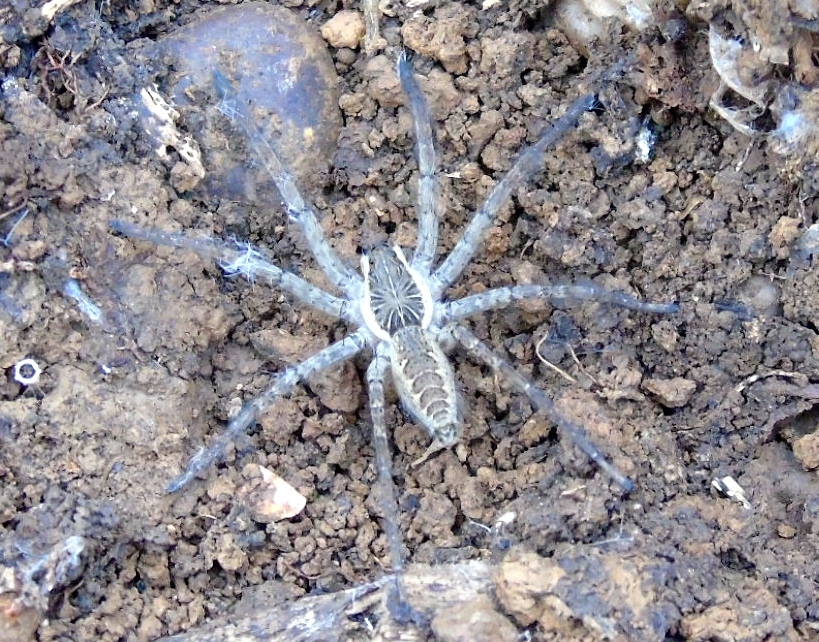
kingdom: Animalia
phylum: Arthropoda
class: Arachnida
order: Araneae
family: Lycosidae
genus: Sosippus
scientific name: Sosippus michoacanus
